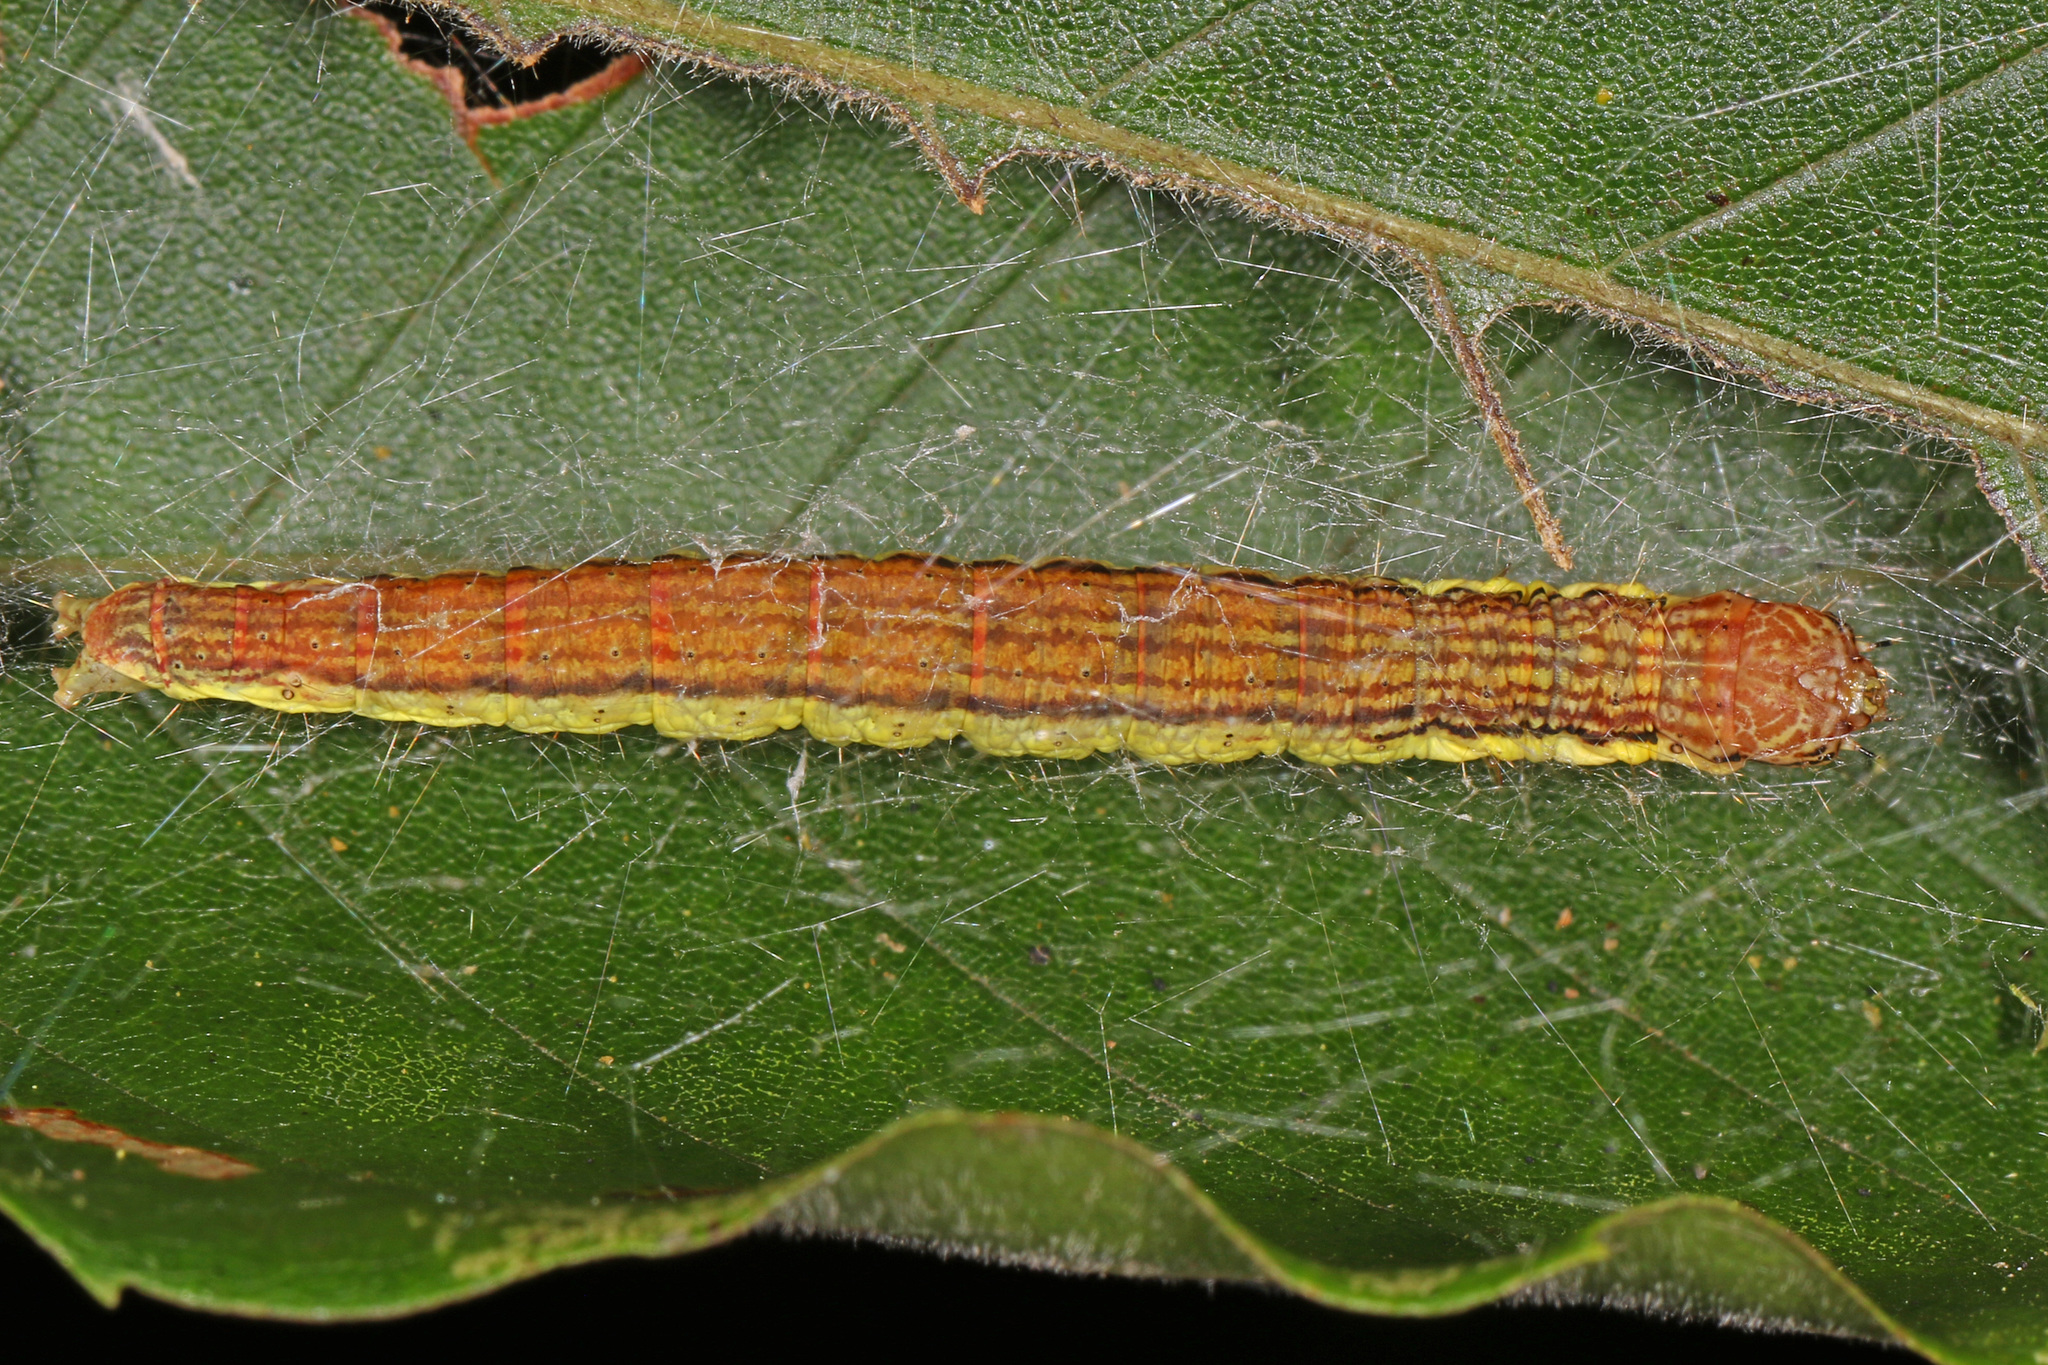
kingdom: Animalia
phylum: Arthropoda
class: Insecta
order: Lepidoptera
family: Pyralidae
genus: Oneida
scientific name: Oneida lunulalis
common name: Orange-tufted oneida moth
